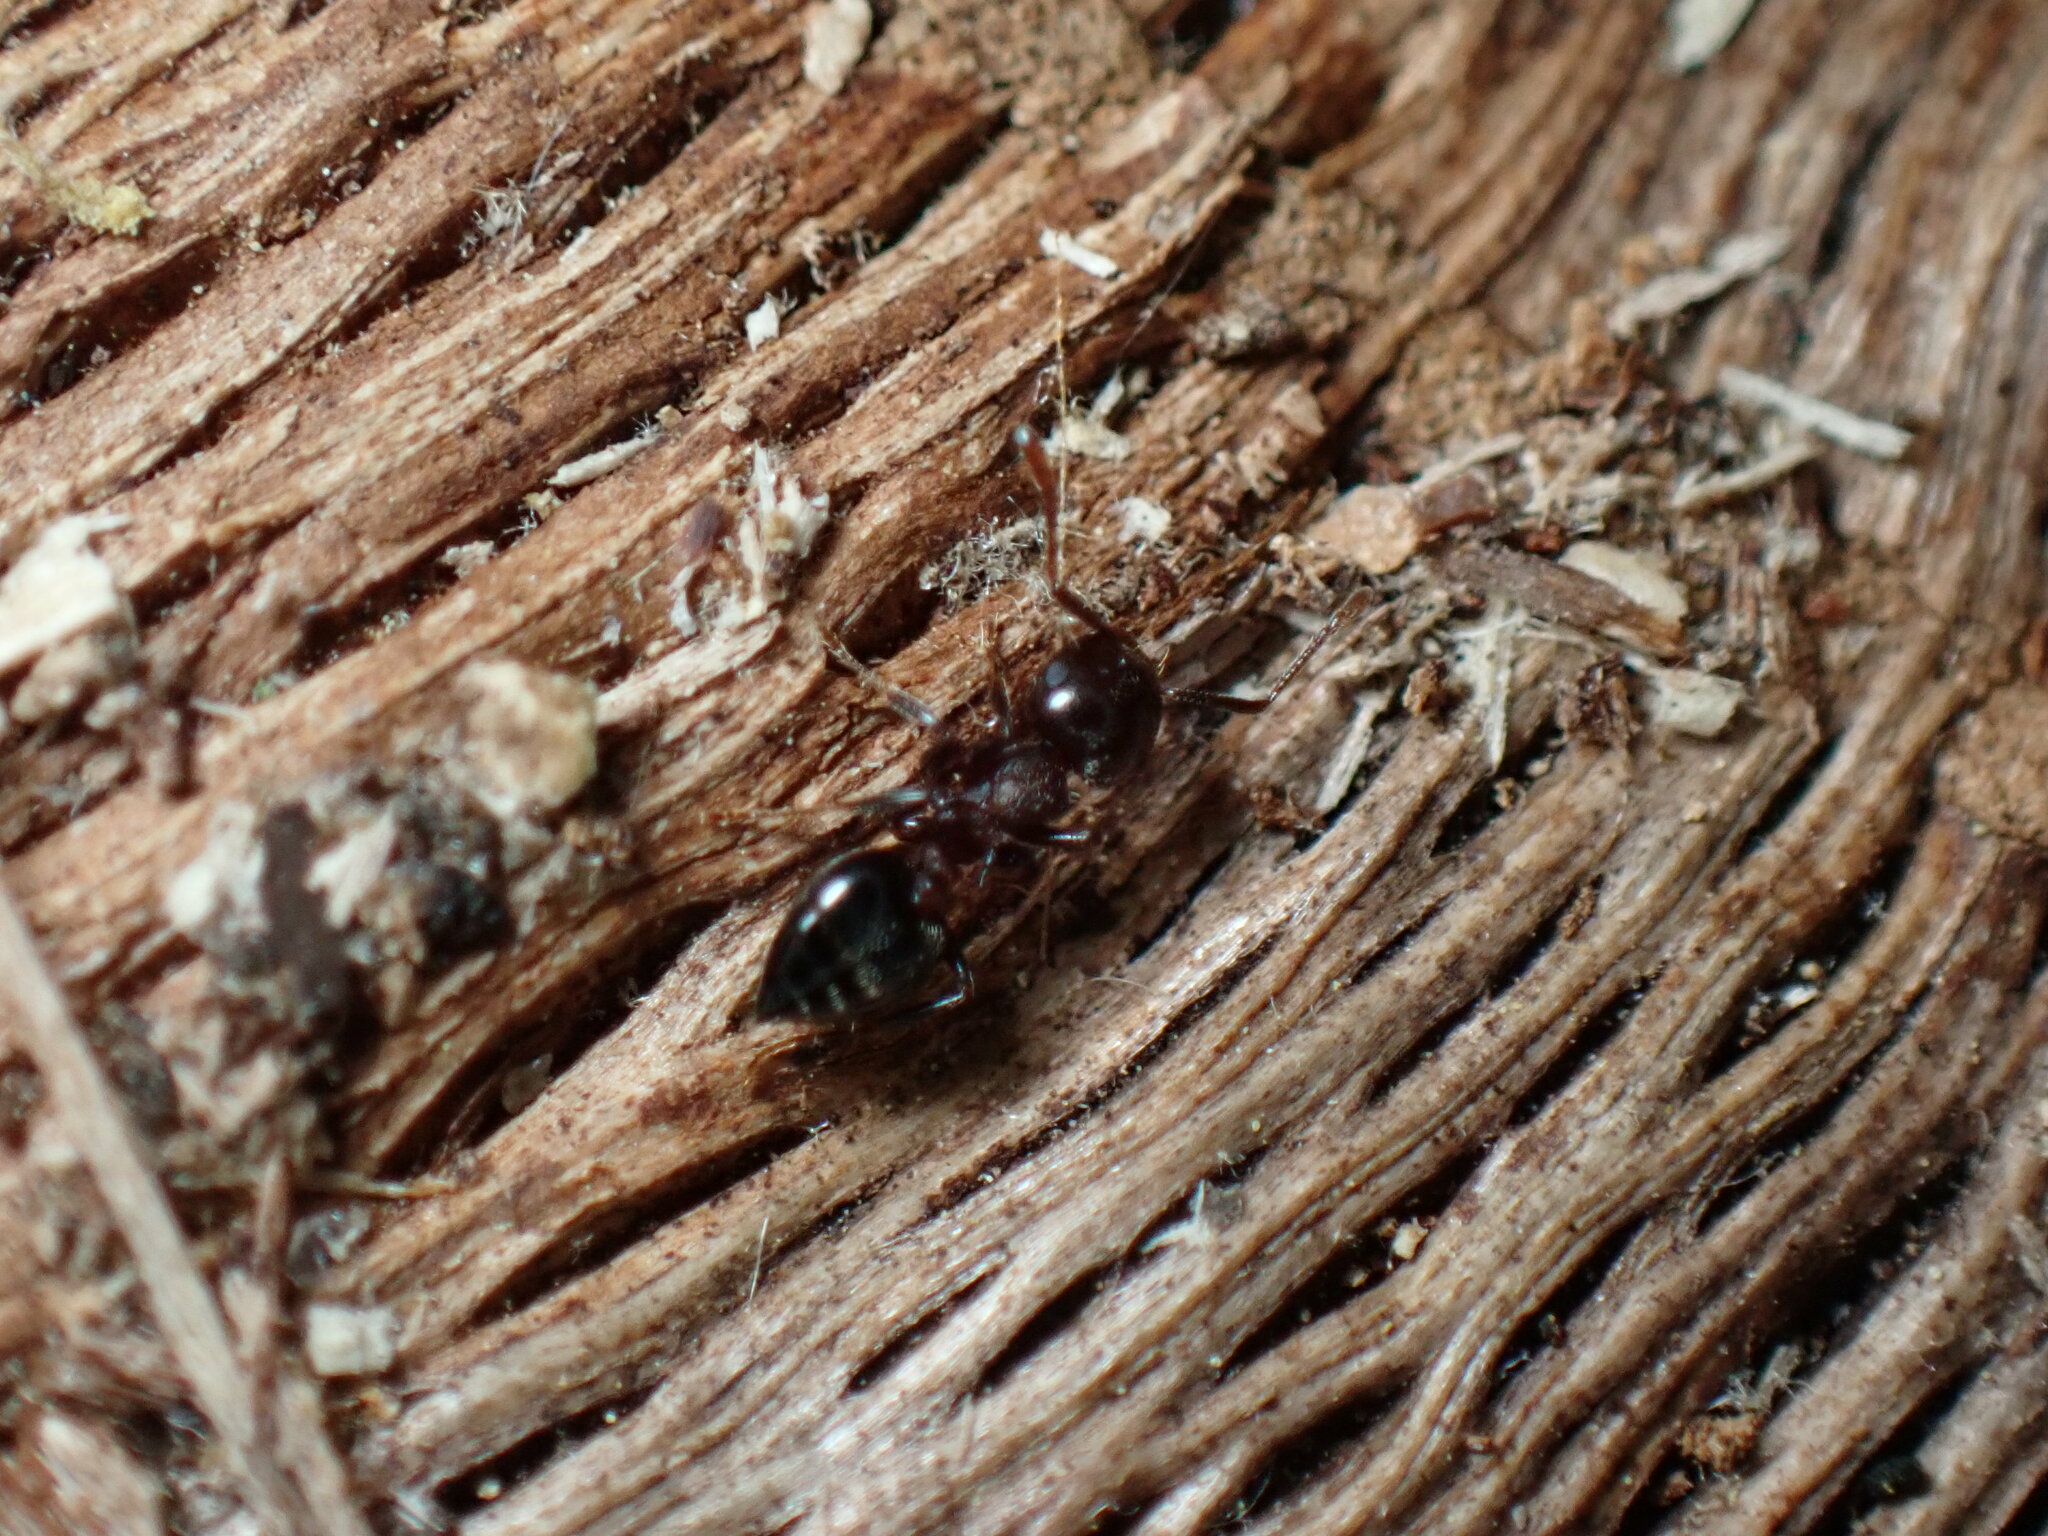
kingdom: Animalia
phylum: Arthropoda
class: Insecta
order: Hymenoptera
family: Formicidae
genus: Crematogaster
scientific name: Crematogaster cerasi
